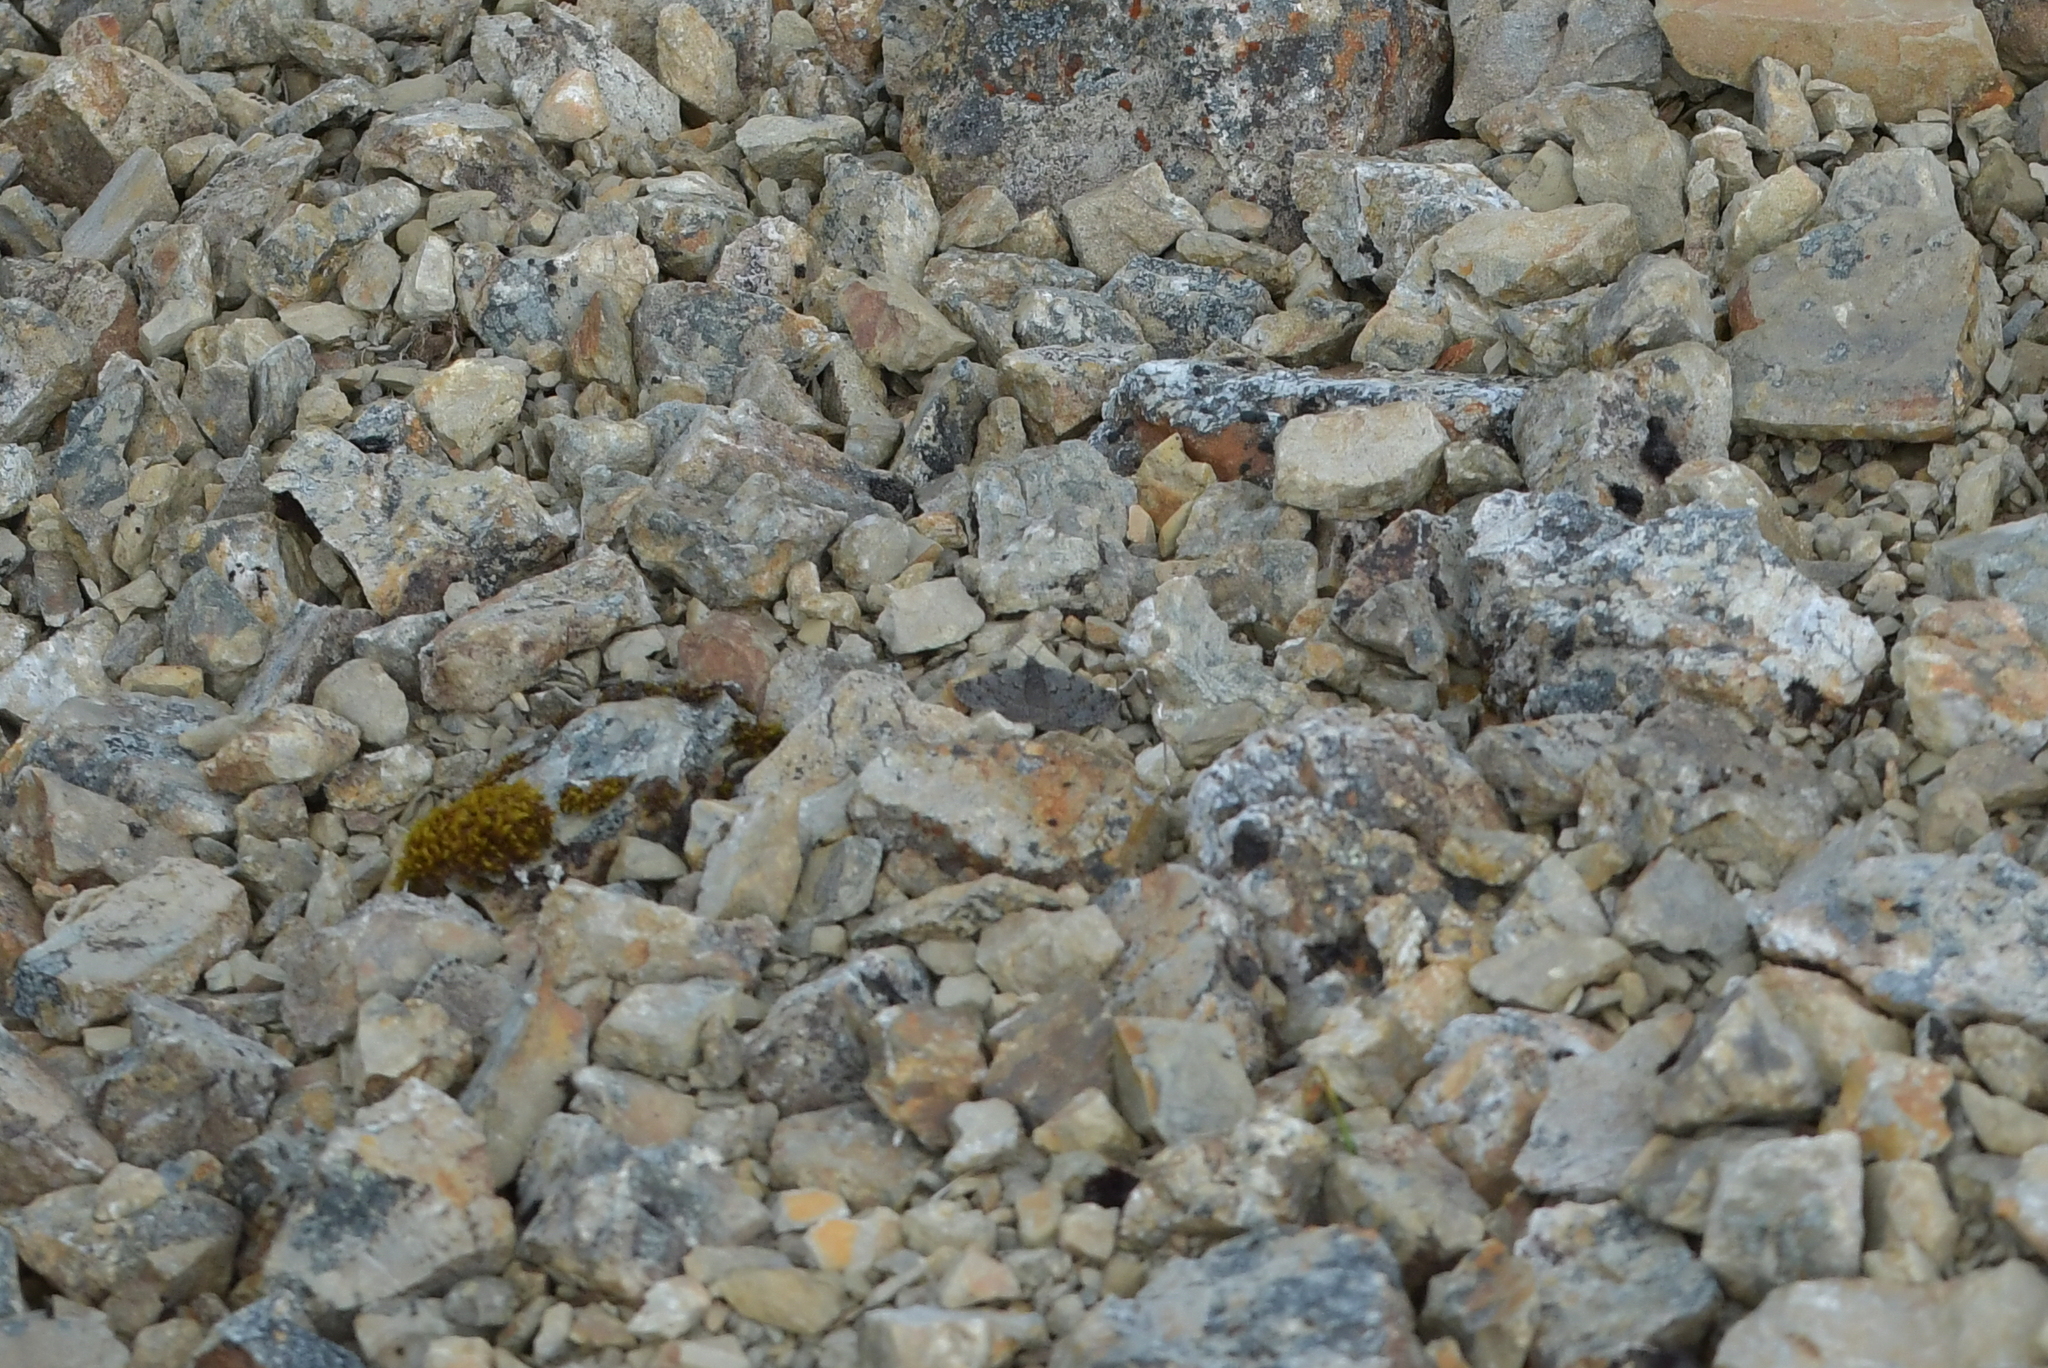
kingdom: Animalia
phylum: Arthropoda
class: Insecta
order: Lepidoptera
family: Geometridae
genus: Dichromodes
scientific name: Dichromodes niger
